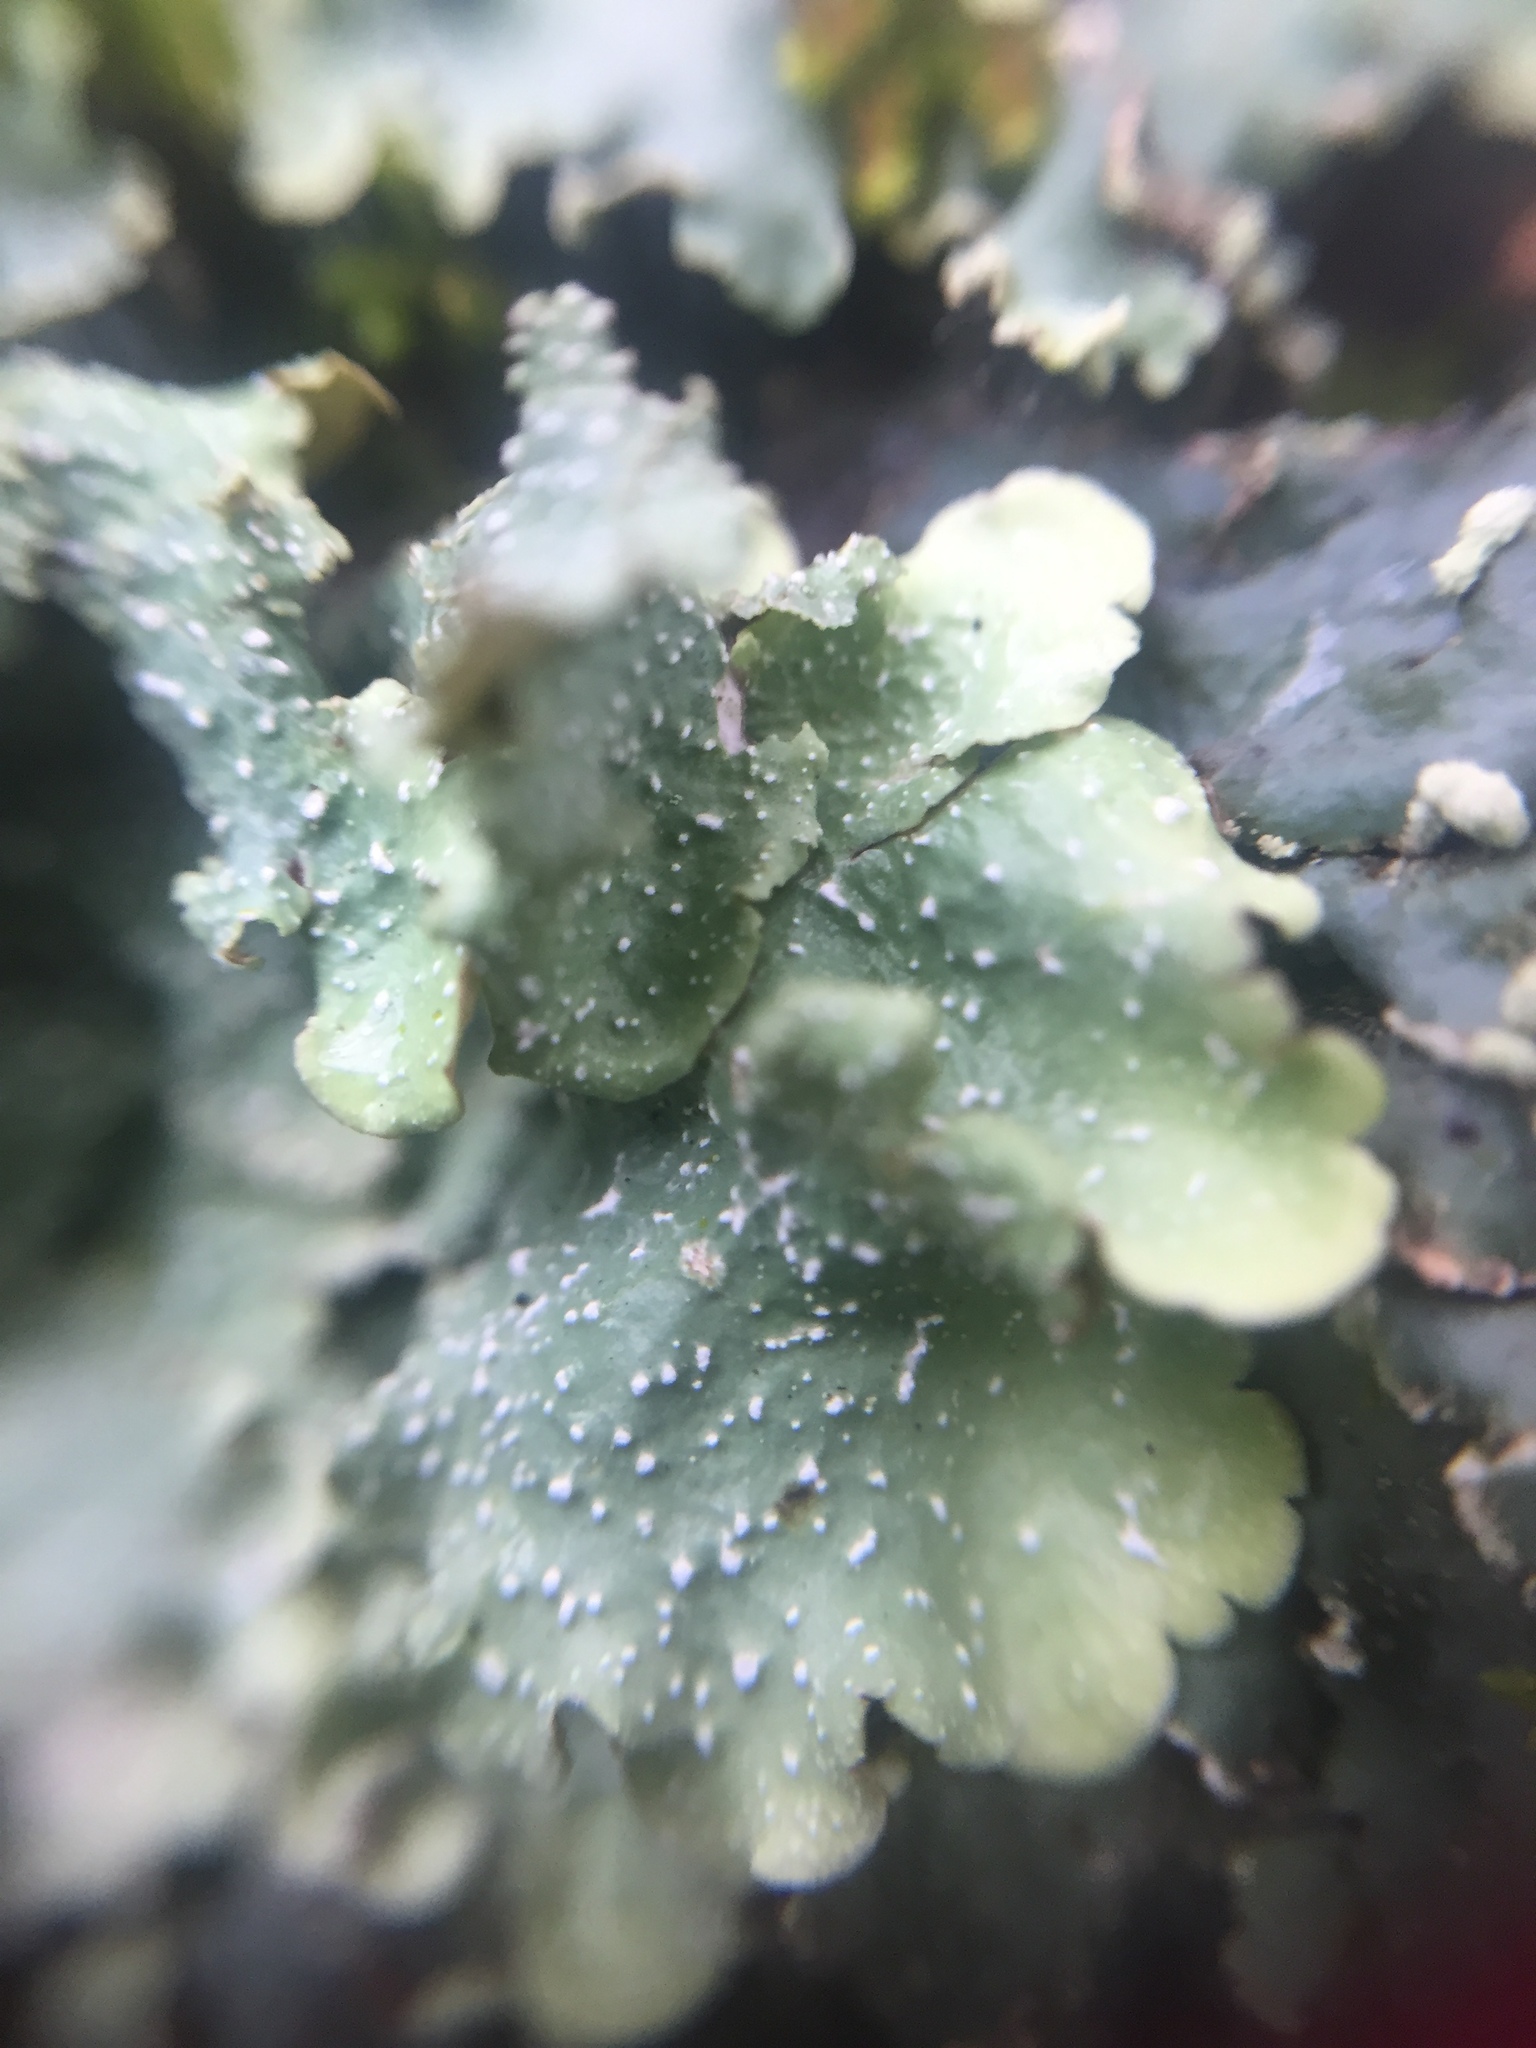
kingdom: Fungi
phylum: Ascomycota
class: Lecanoromycetes
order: Lecanorales
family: Parmeliaceae
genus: Flavopunctelia
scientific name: Flavopunctelia flaventior
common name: Speckled greenshield
